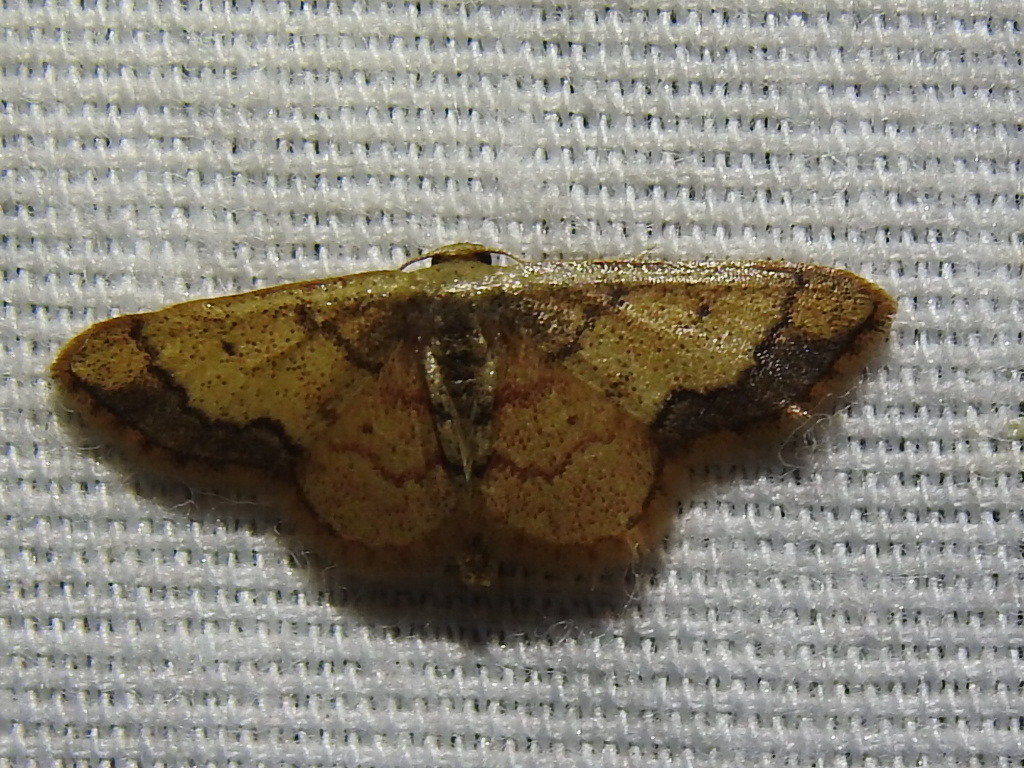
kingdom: Animalia
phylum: Arthropoda
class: Insecta
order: Lepidoptera
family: Geometridae
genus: Idaea
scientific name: Idaea kendallaria
